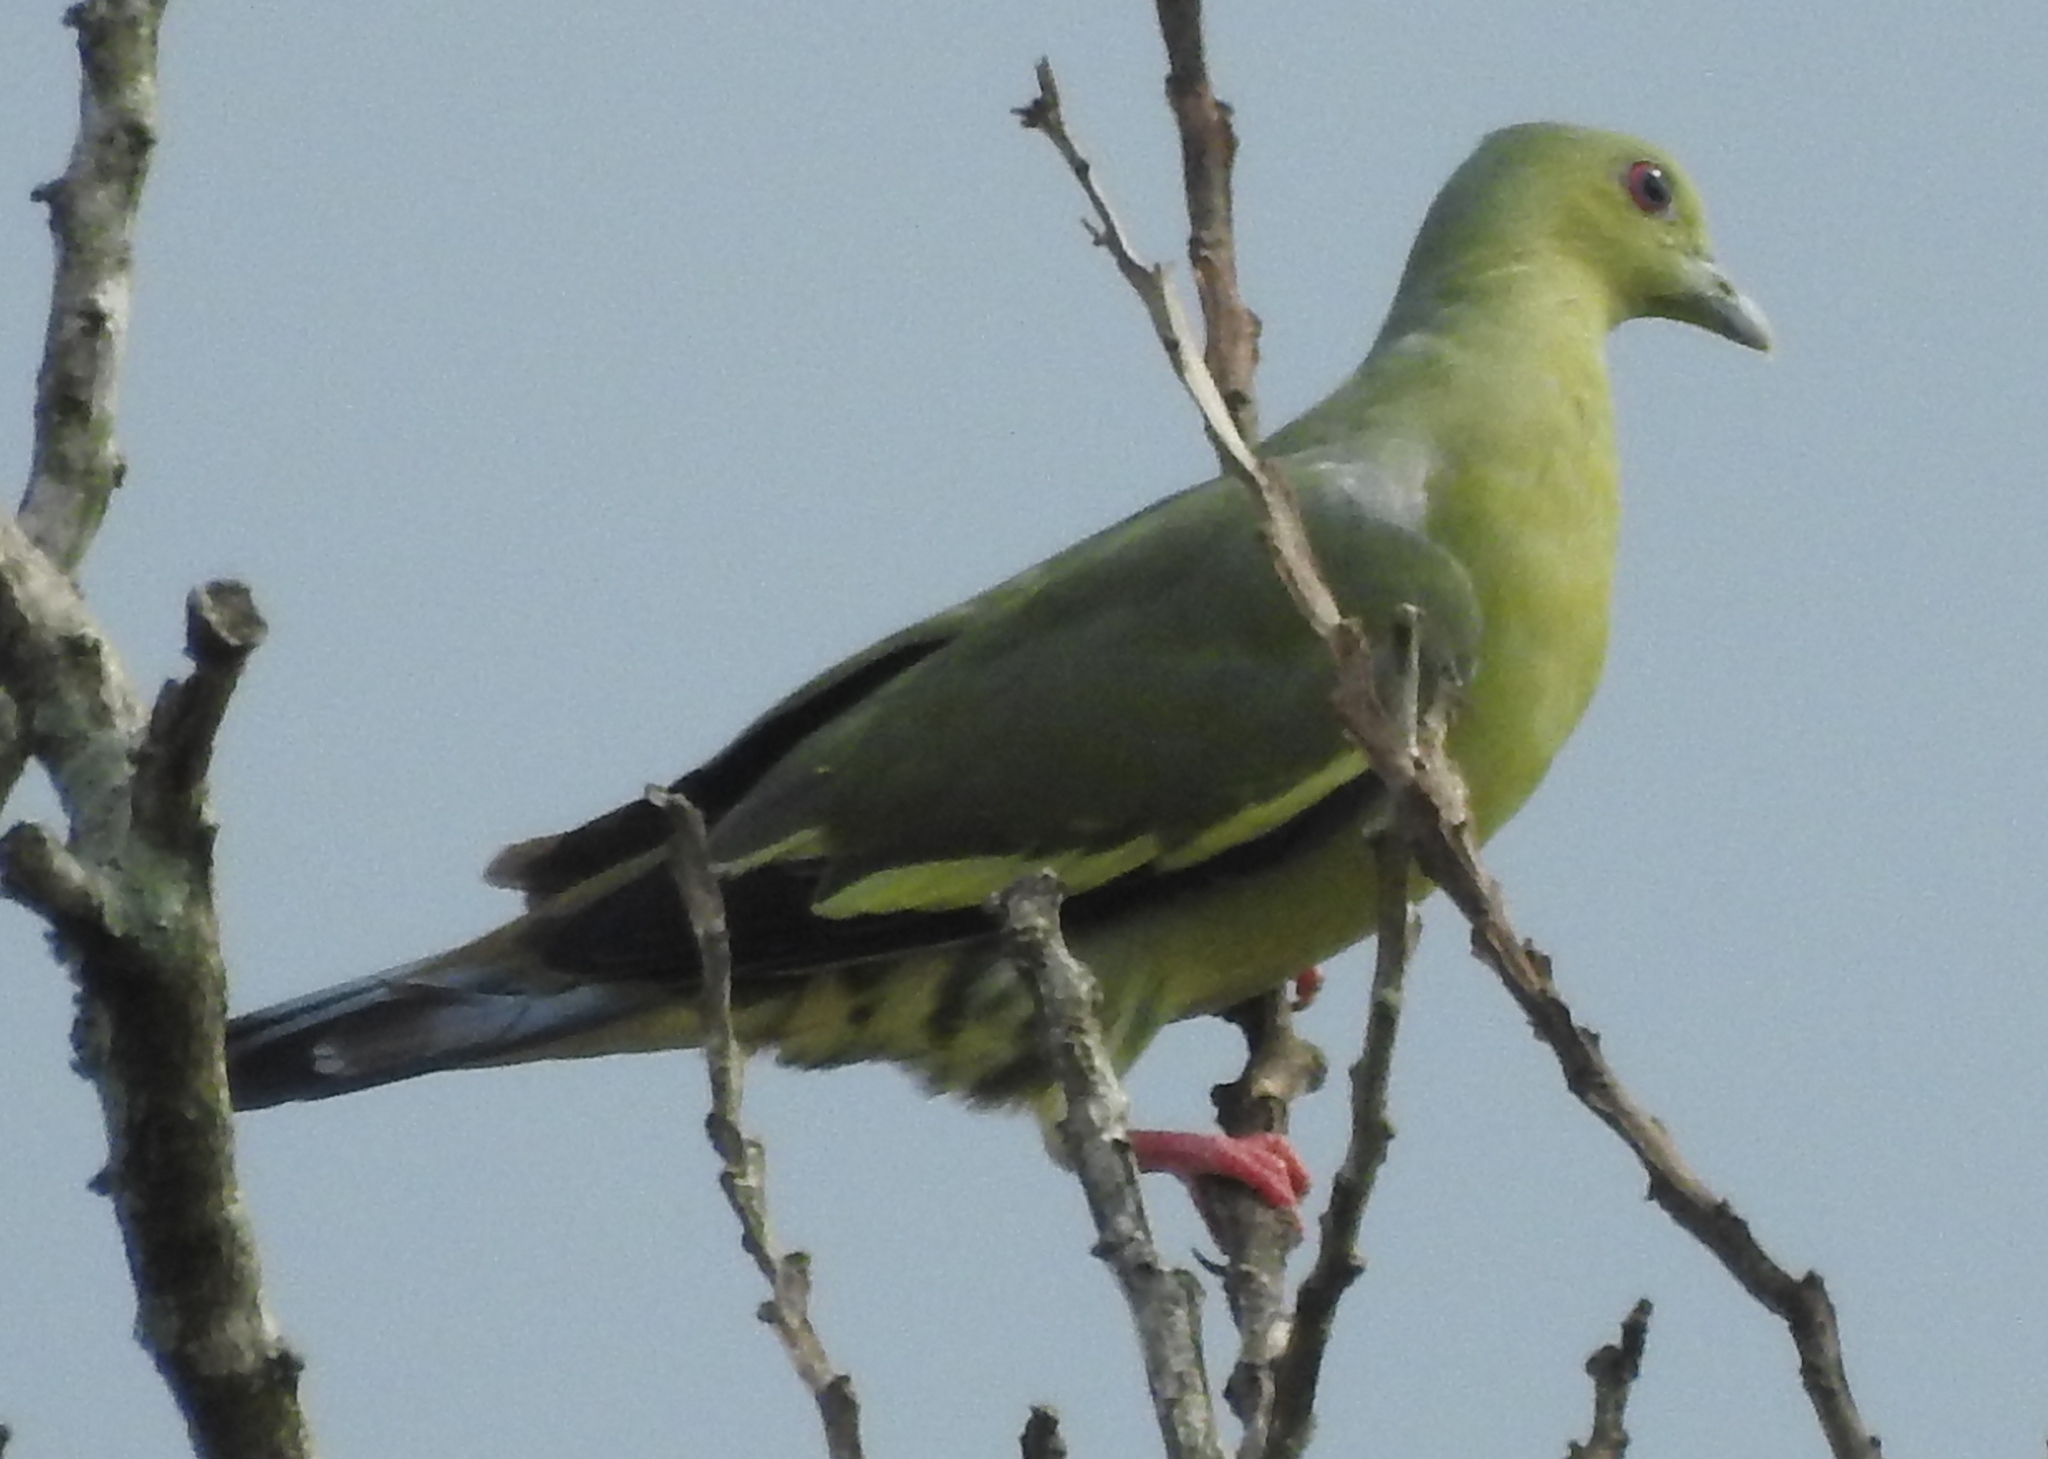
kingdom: Animalia
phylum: Chordata
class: Aves
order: Columbiformes
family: Columbidae
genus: Treron
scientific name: Treron vernans
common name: Pink-necked green pigeon
